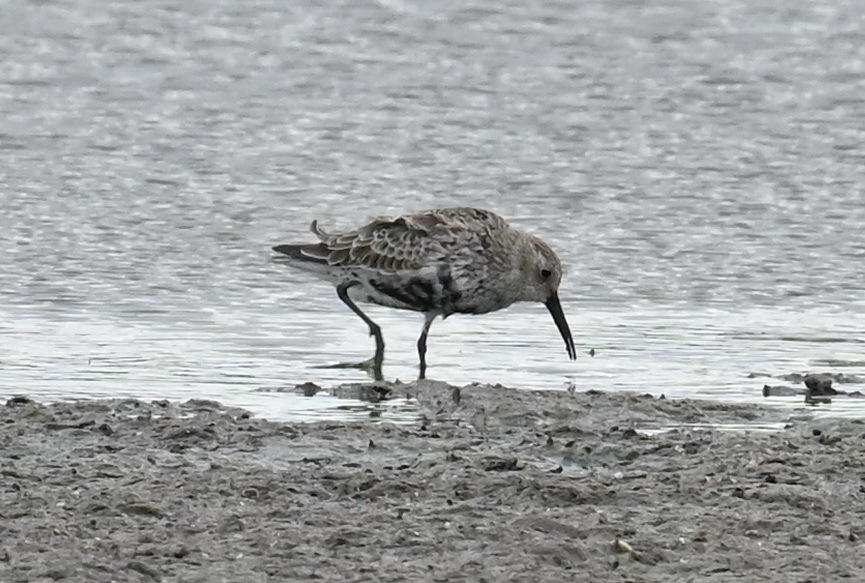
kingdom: Animalia
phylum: Chordata
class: Aves
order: Charadriiformes
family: Scolopacidae
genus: Calidris
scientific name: Calidris alpina
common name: Dunlin
